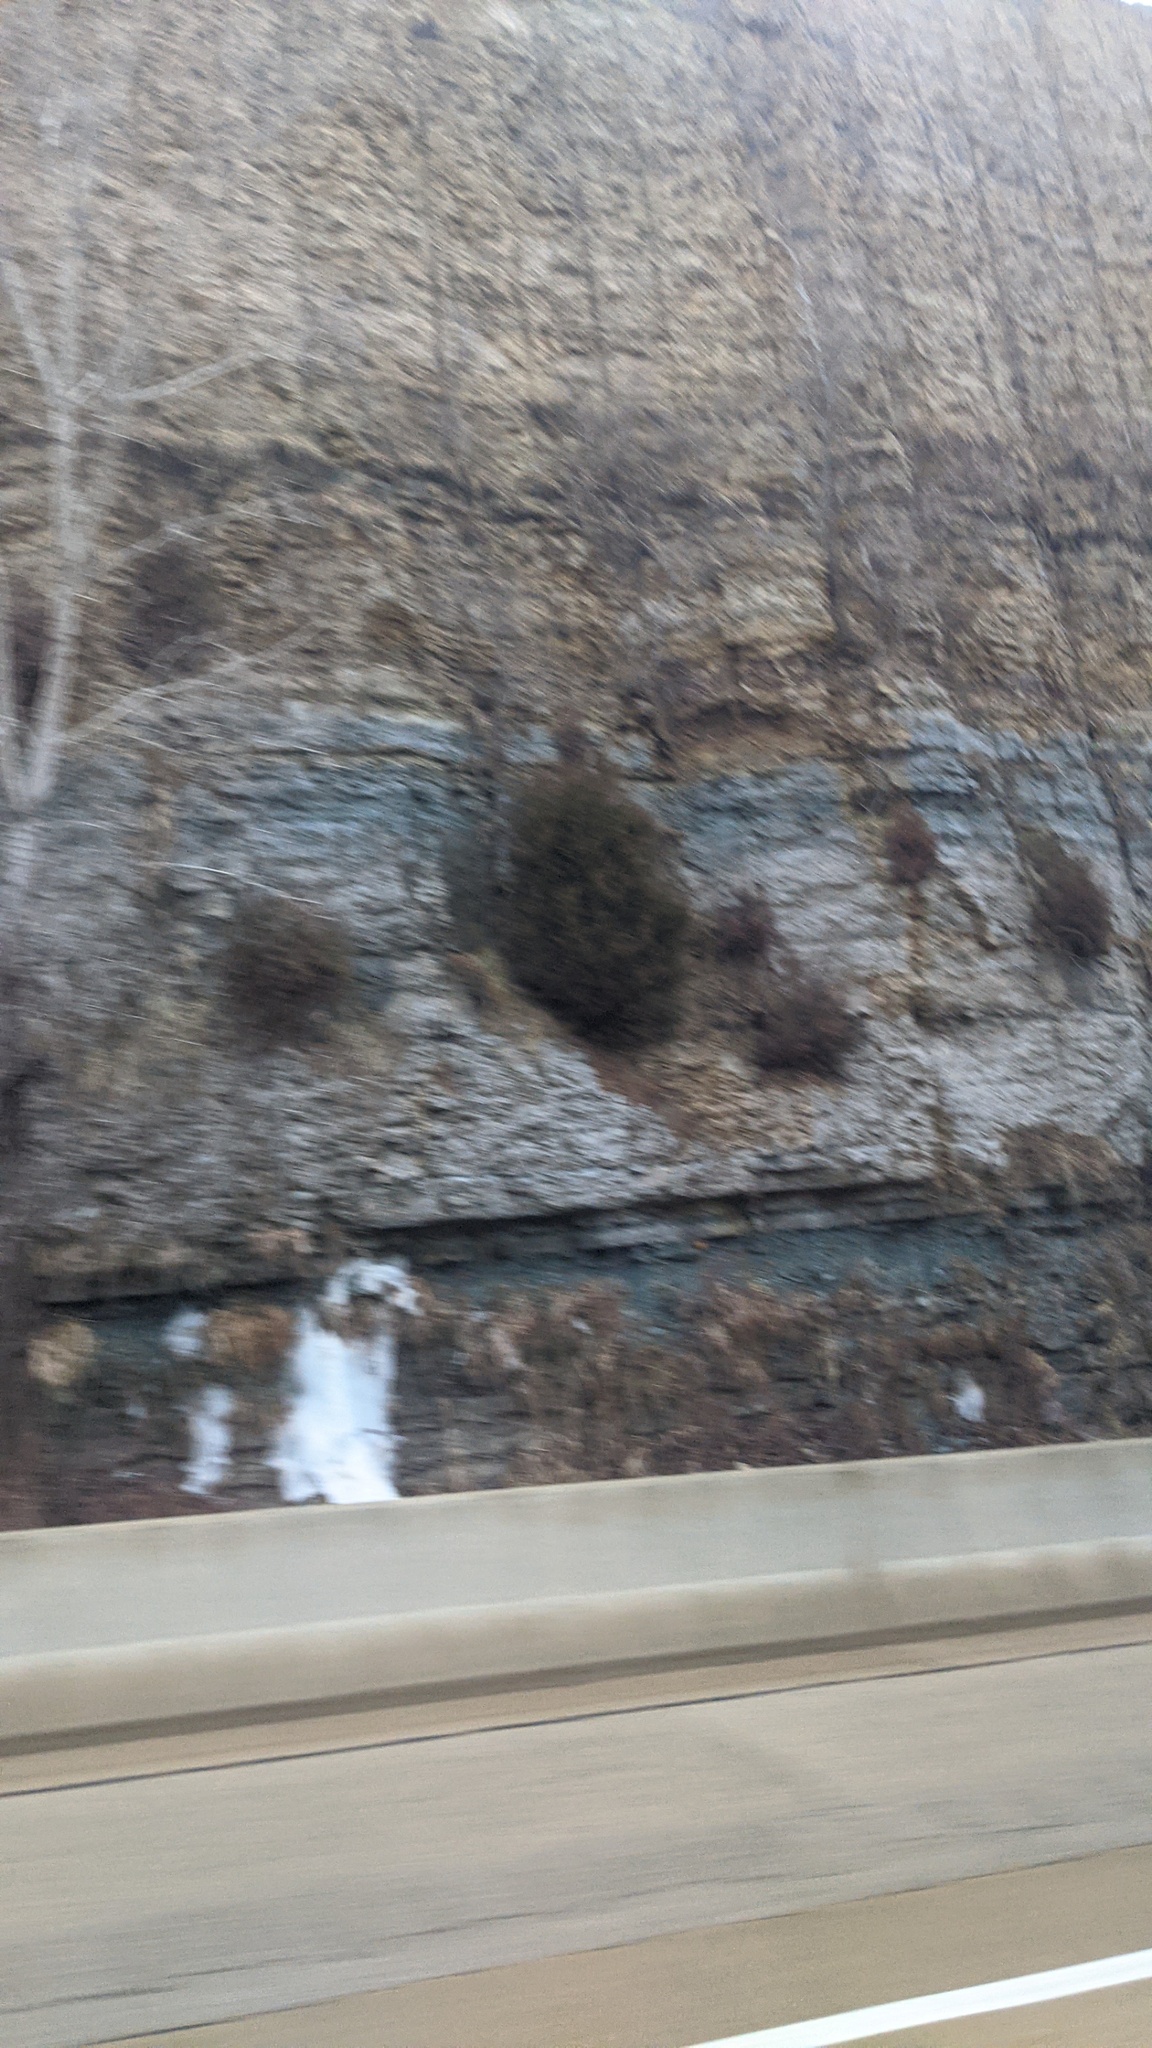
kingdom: Plantae
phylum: Tracheophyta
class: Pinopsida
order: Pinales
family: Cupressaceae
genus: Juniperus
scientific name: Juniperus virginiana
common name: Red juniper
